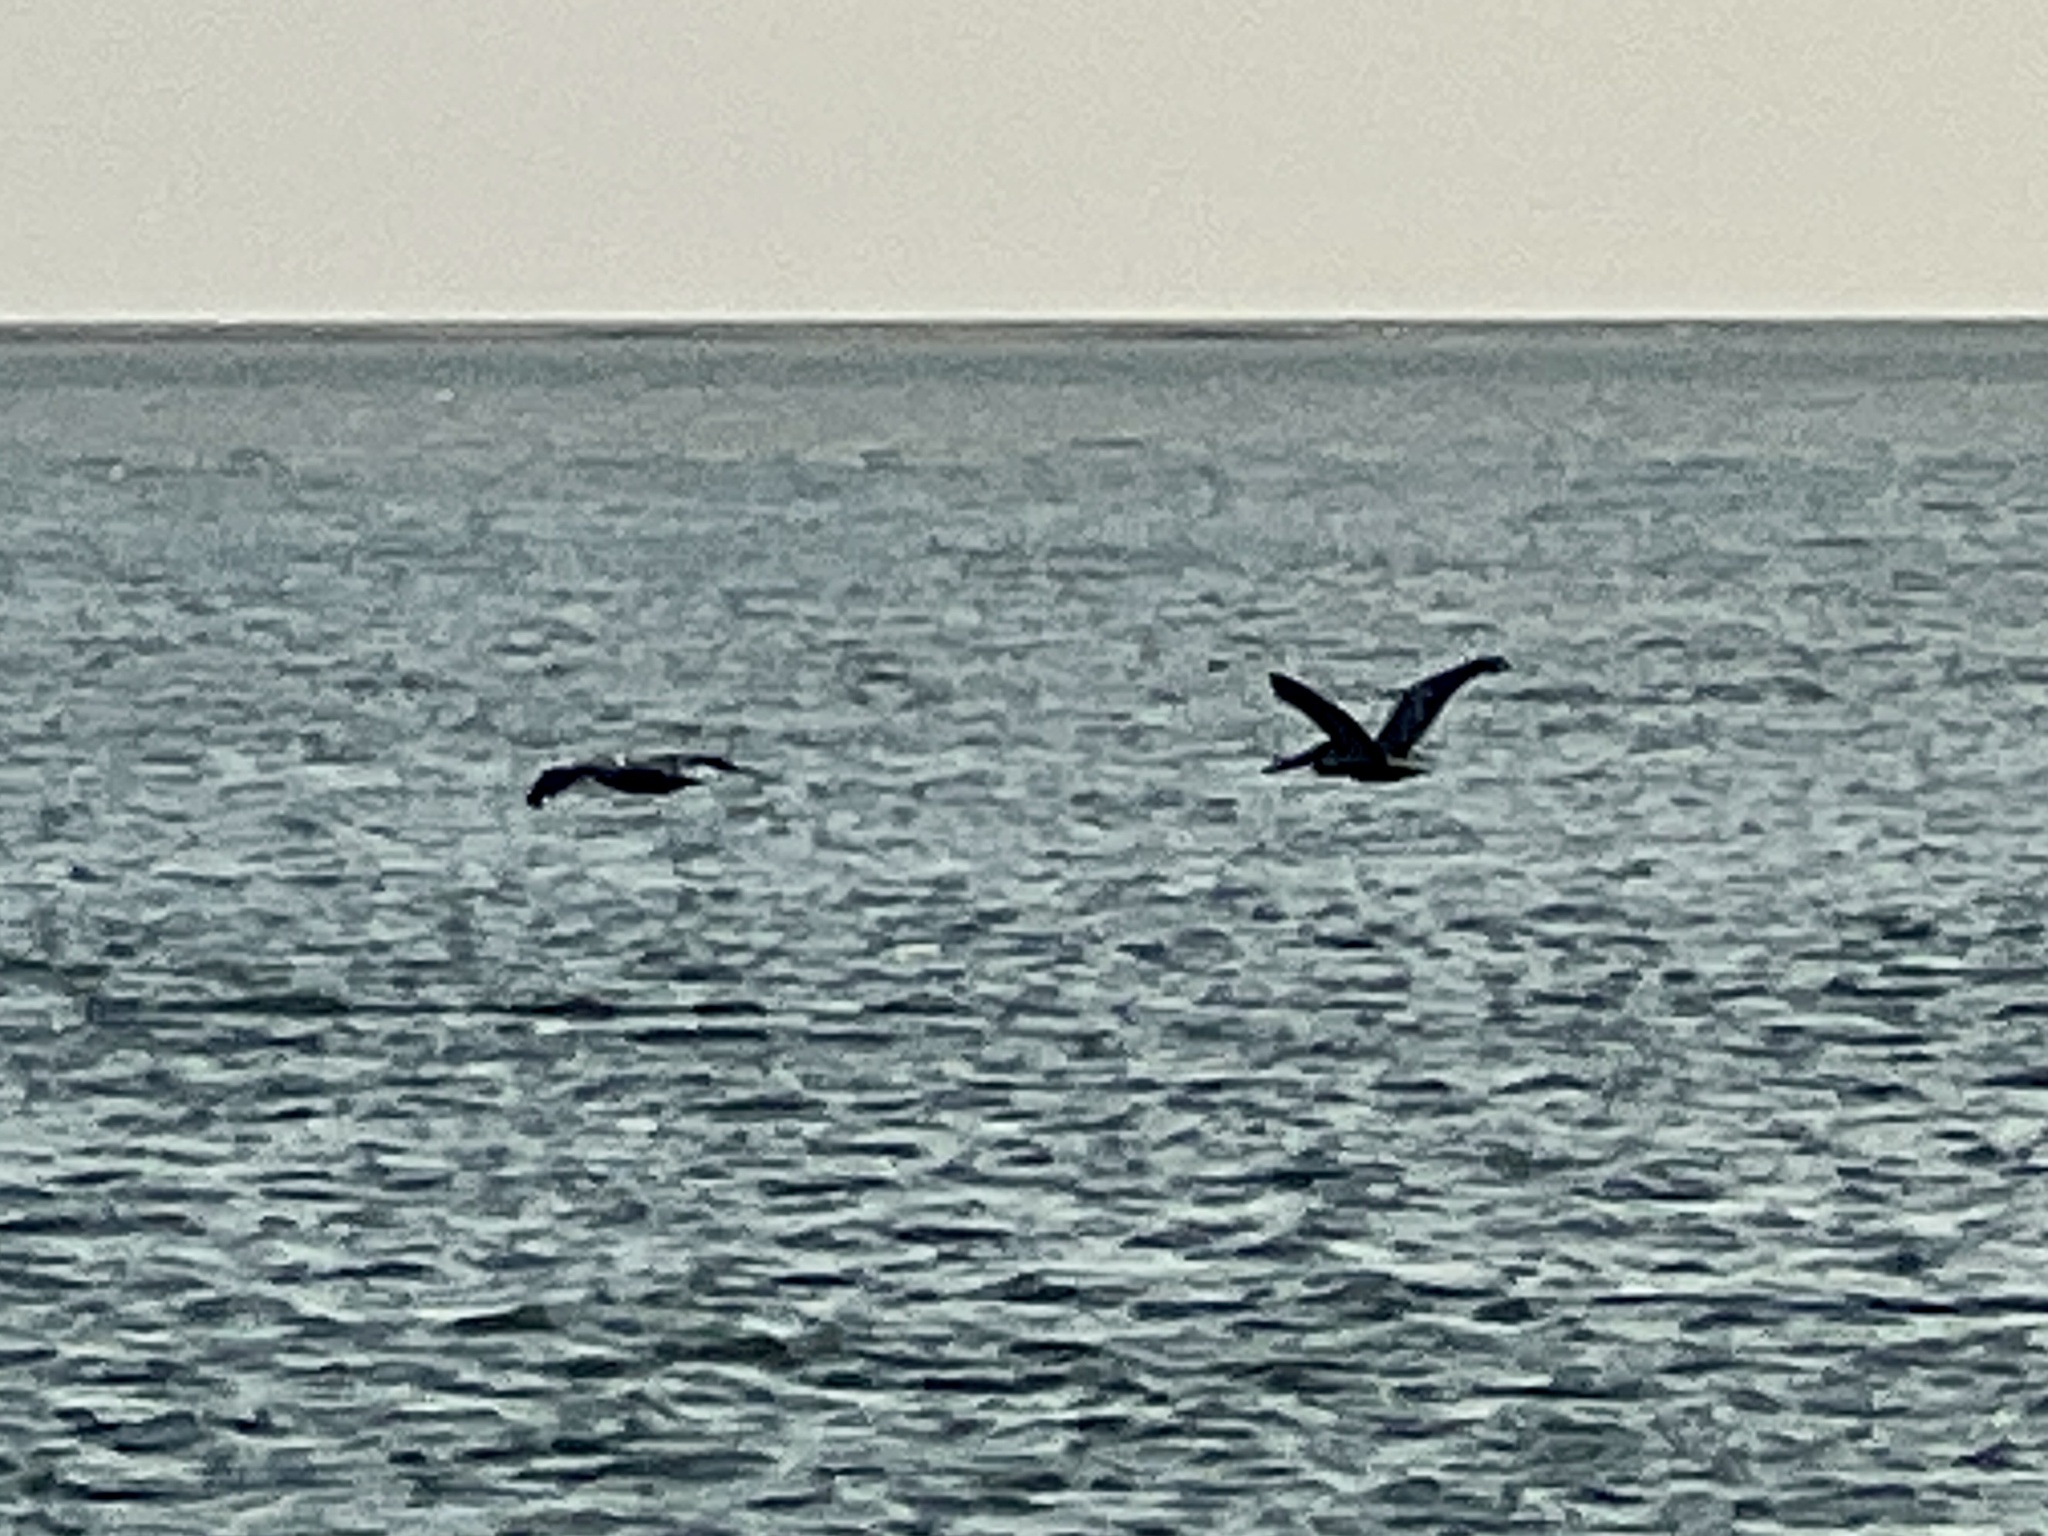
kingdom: Animalia
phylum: Chordata
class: Aves
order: Pelecaniformes
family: Pelecanidae
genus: Pelecanus
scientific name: Pelecanus occidentalis
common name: Brown pelican
